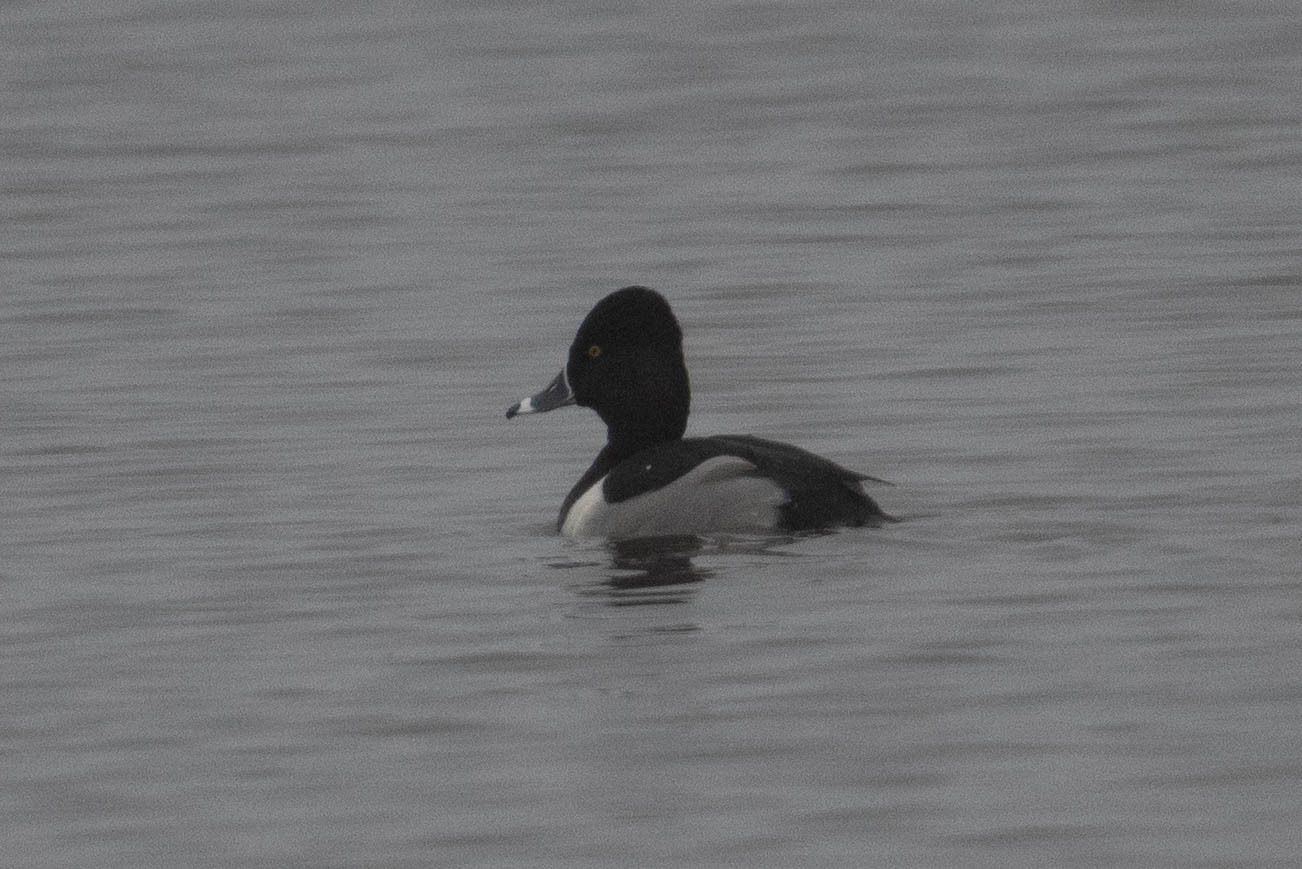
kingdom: Animalia
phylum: Chordata
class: Aves
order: Anseriformes
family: Anatidae
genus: Aythya
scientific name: Aythya collaris
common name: Ring-necked duck
